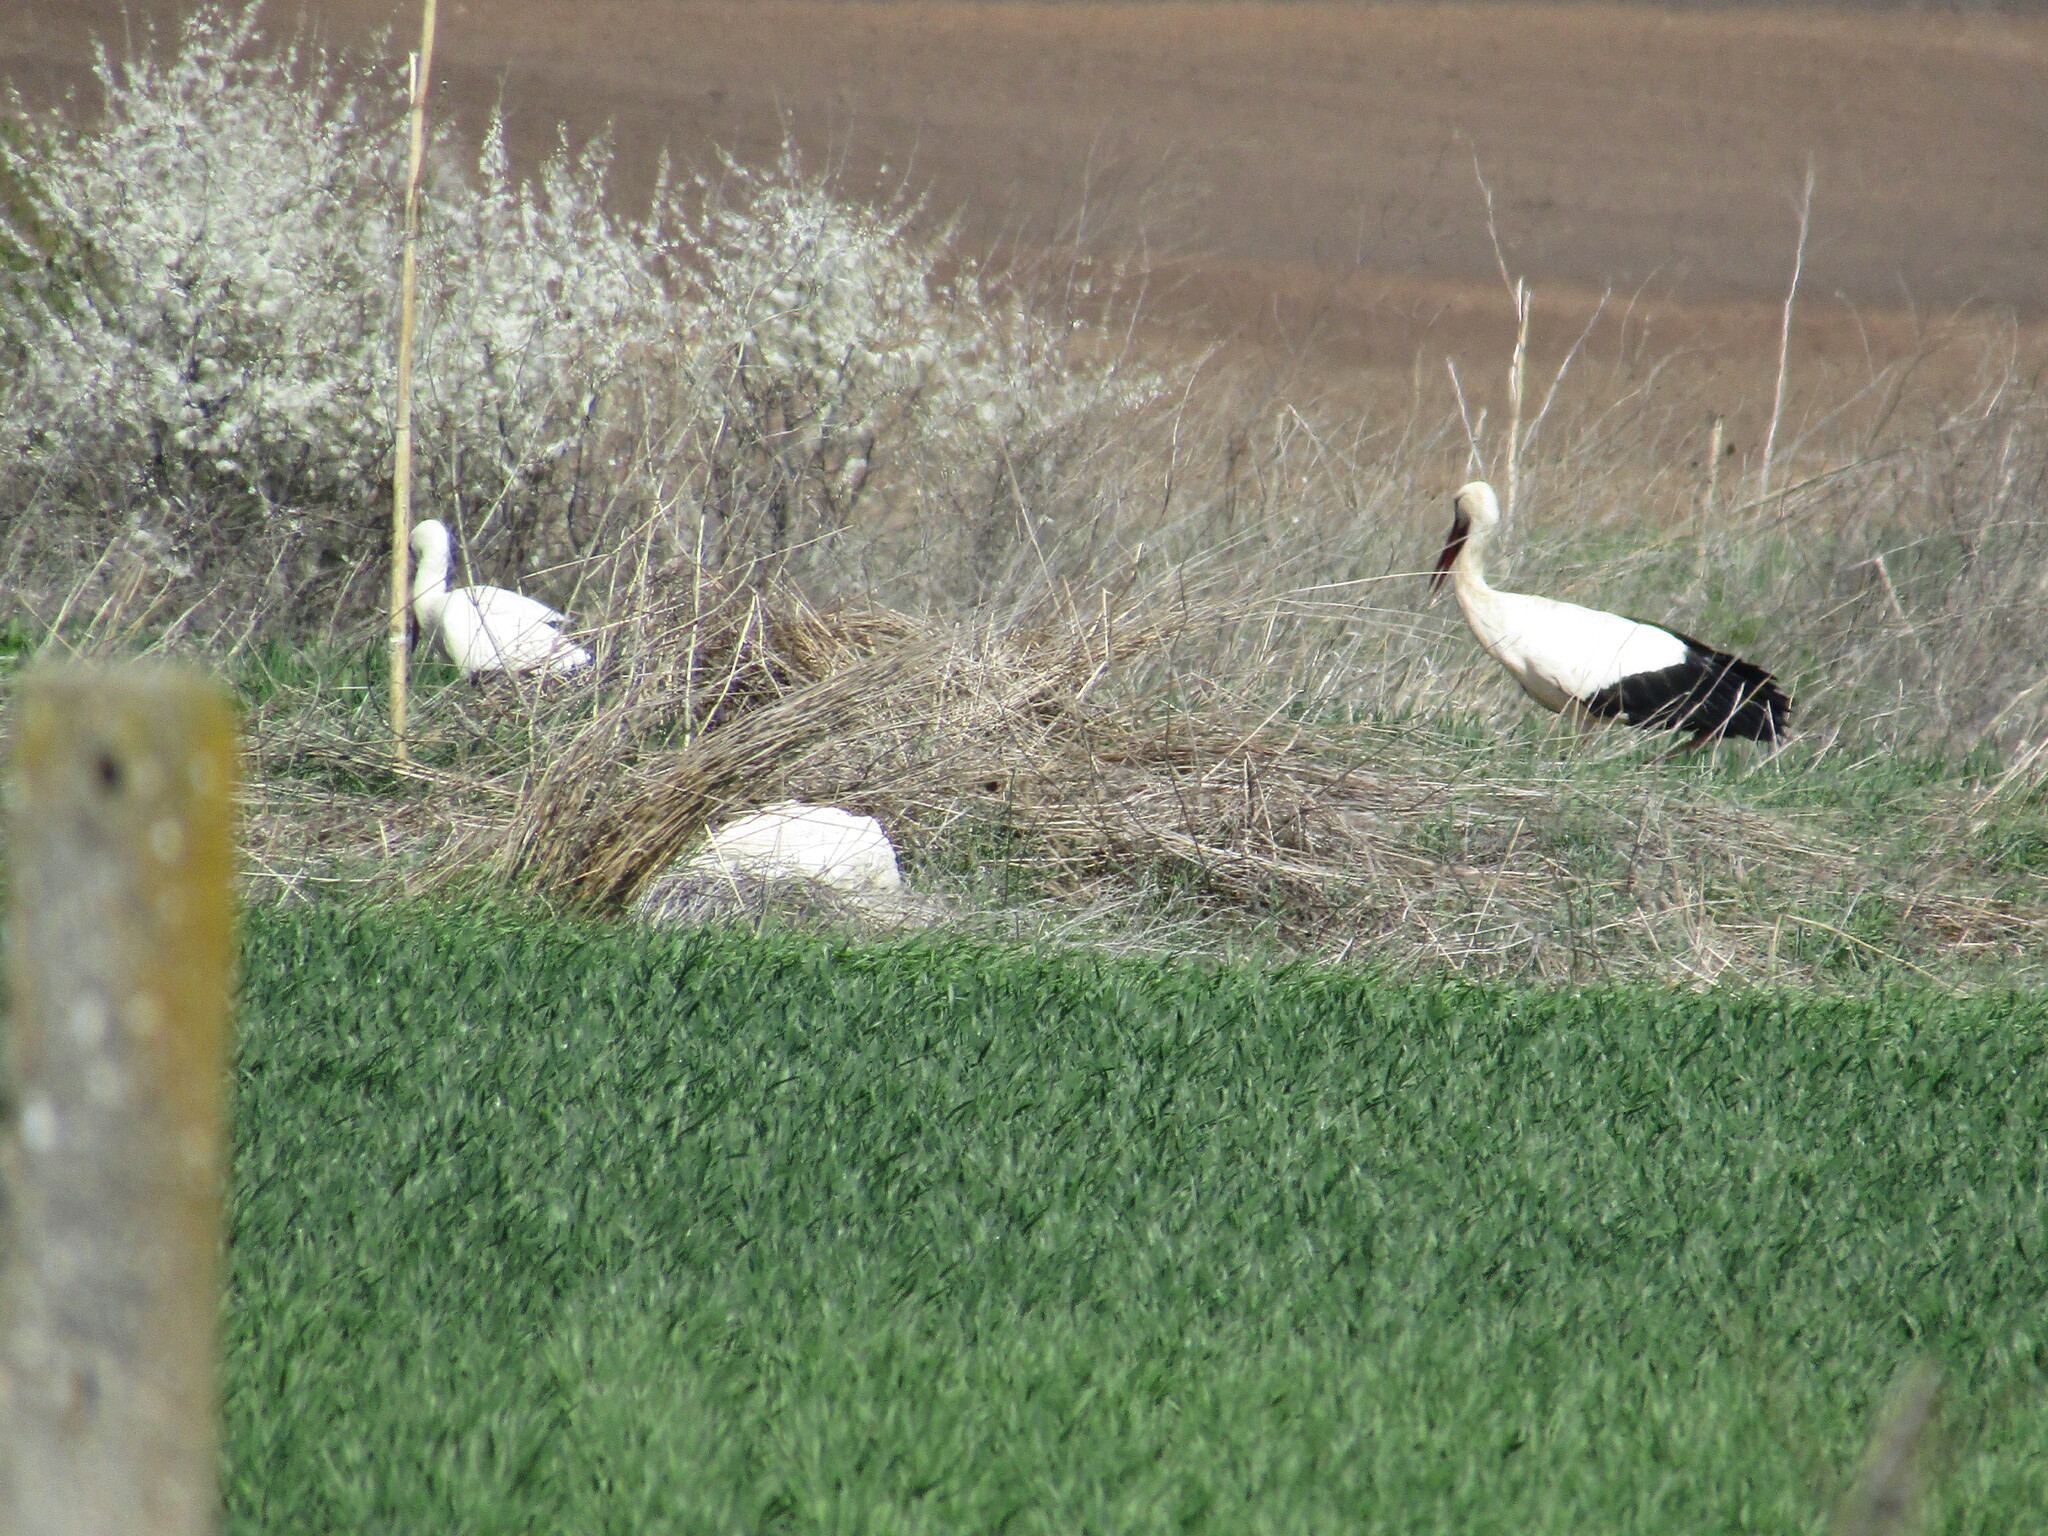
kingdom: Animalia
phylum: Chordata
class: Aves
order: Ciconiiformes
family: Ciconiidae
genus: Ciconia
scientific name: Ciconia ciconia
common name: White stork
